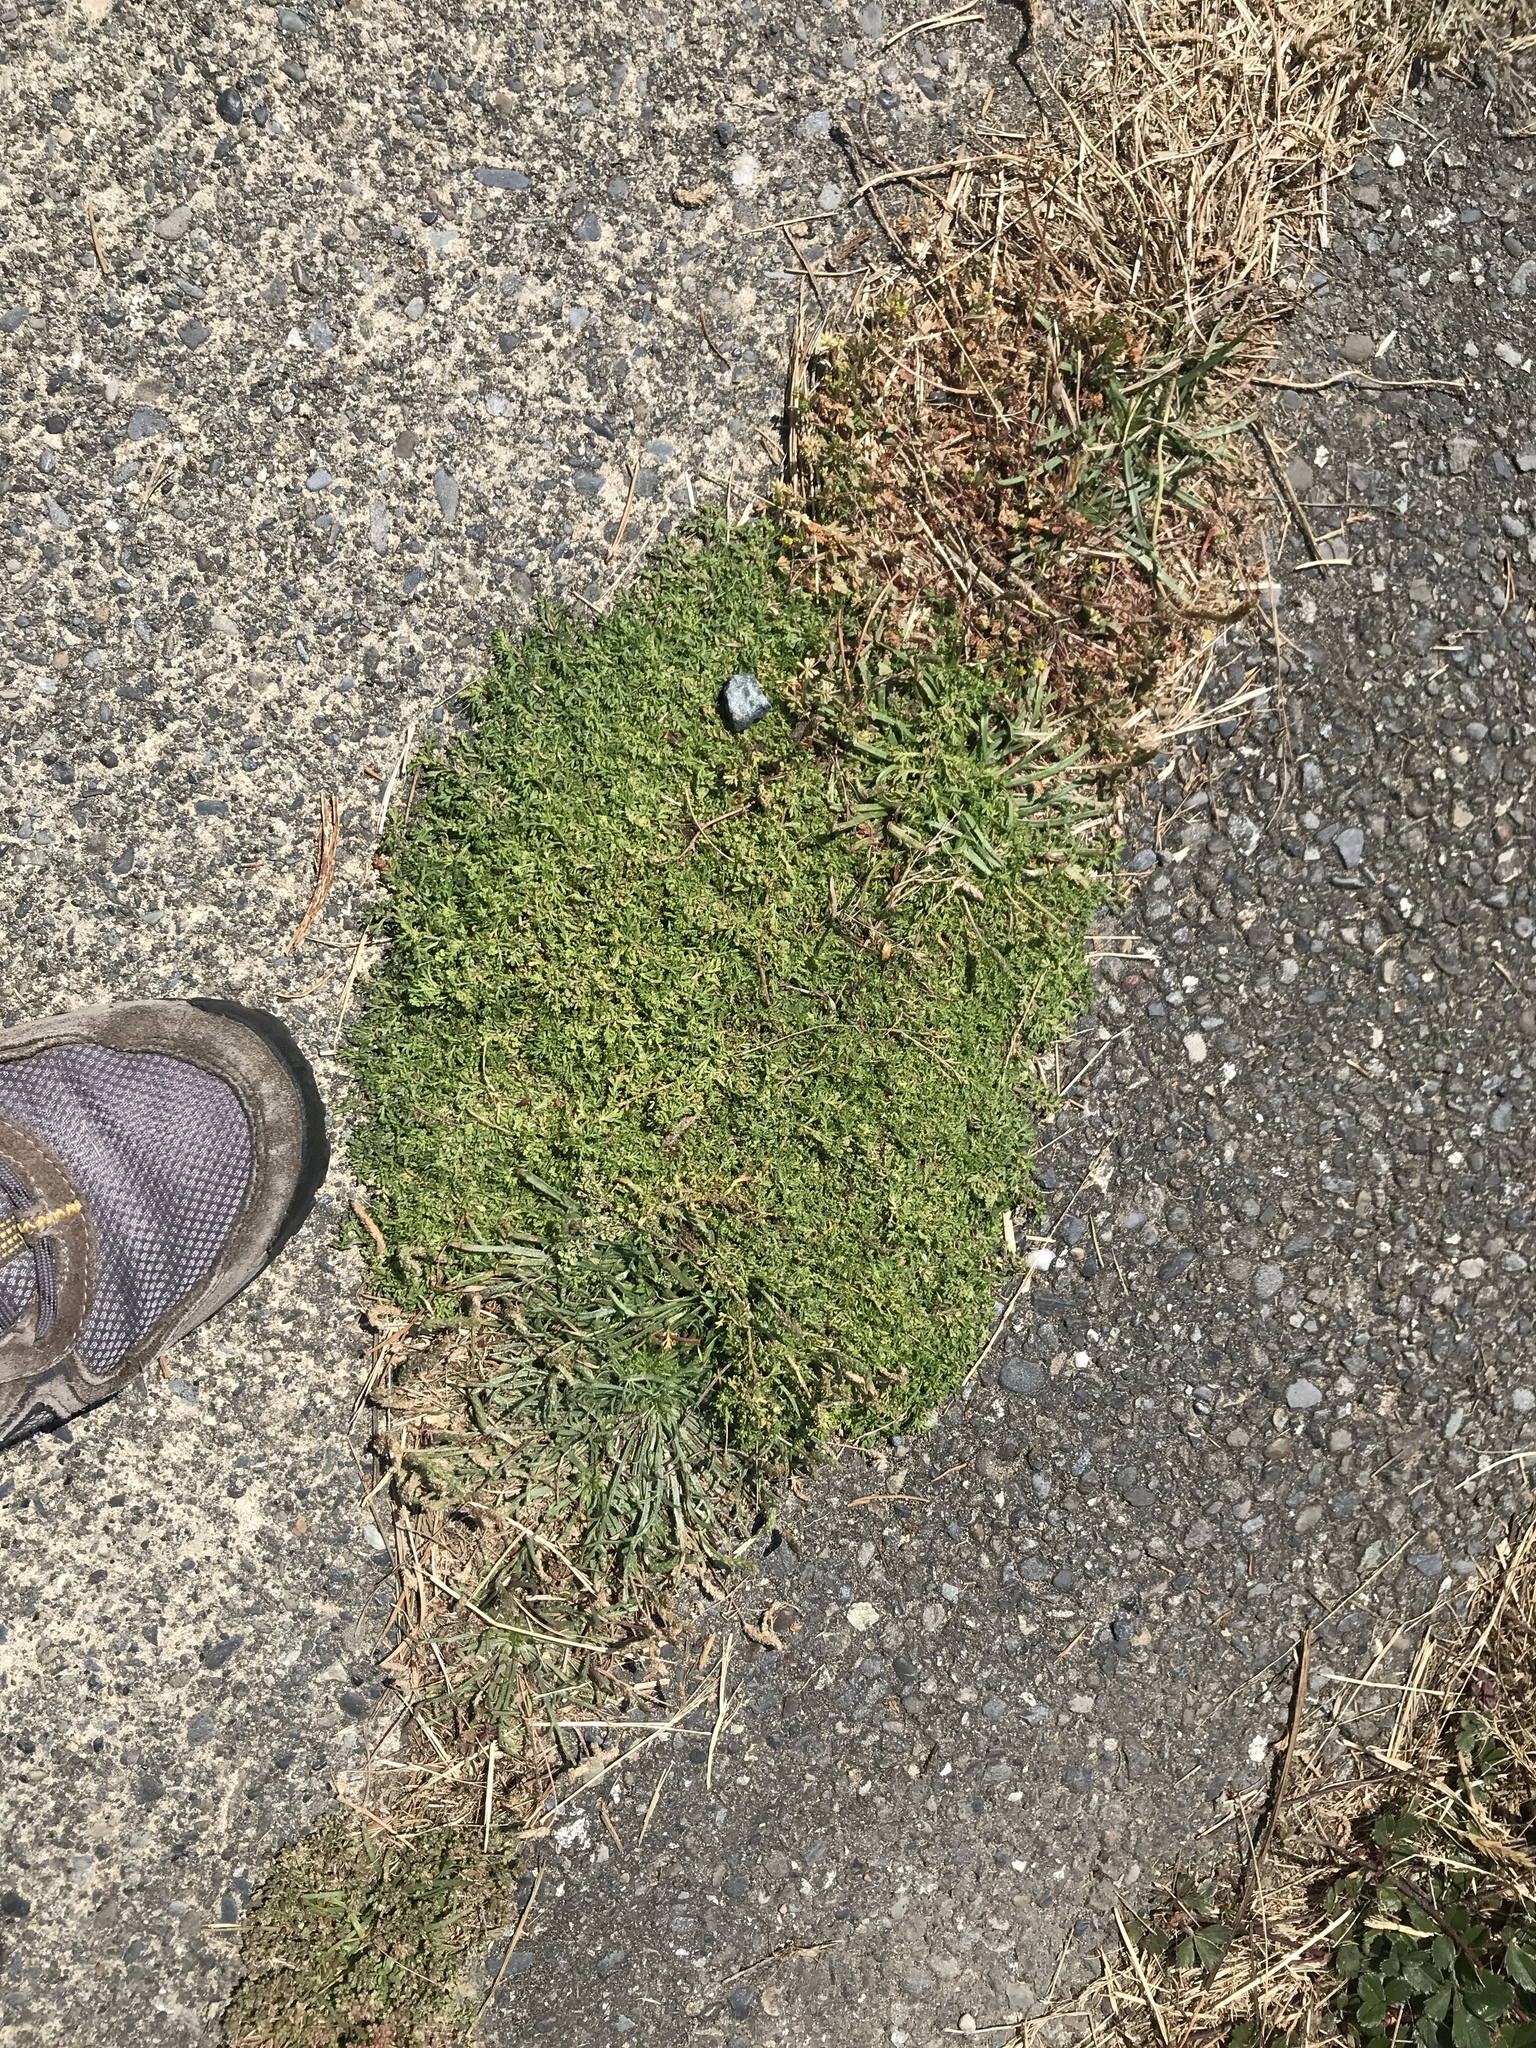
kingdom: Plantae
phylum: Tracheophyta
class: Magnoliopsida
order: Brassicales
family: Brassicaceae
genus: Lepidium
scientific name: Lepidium didymum
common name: Lesser swinecress
